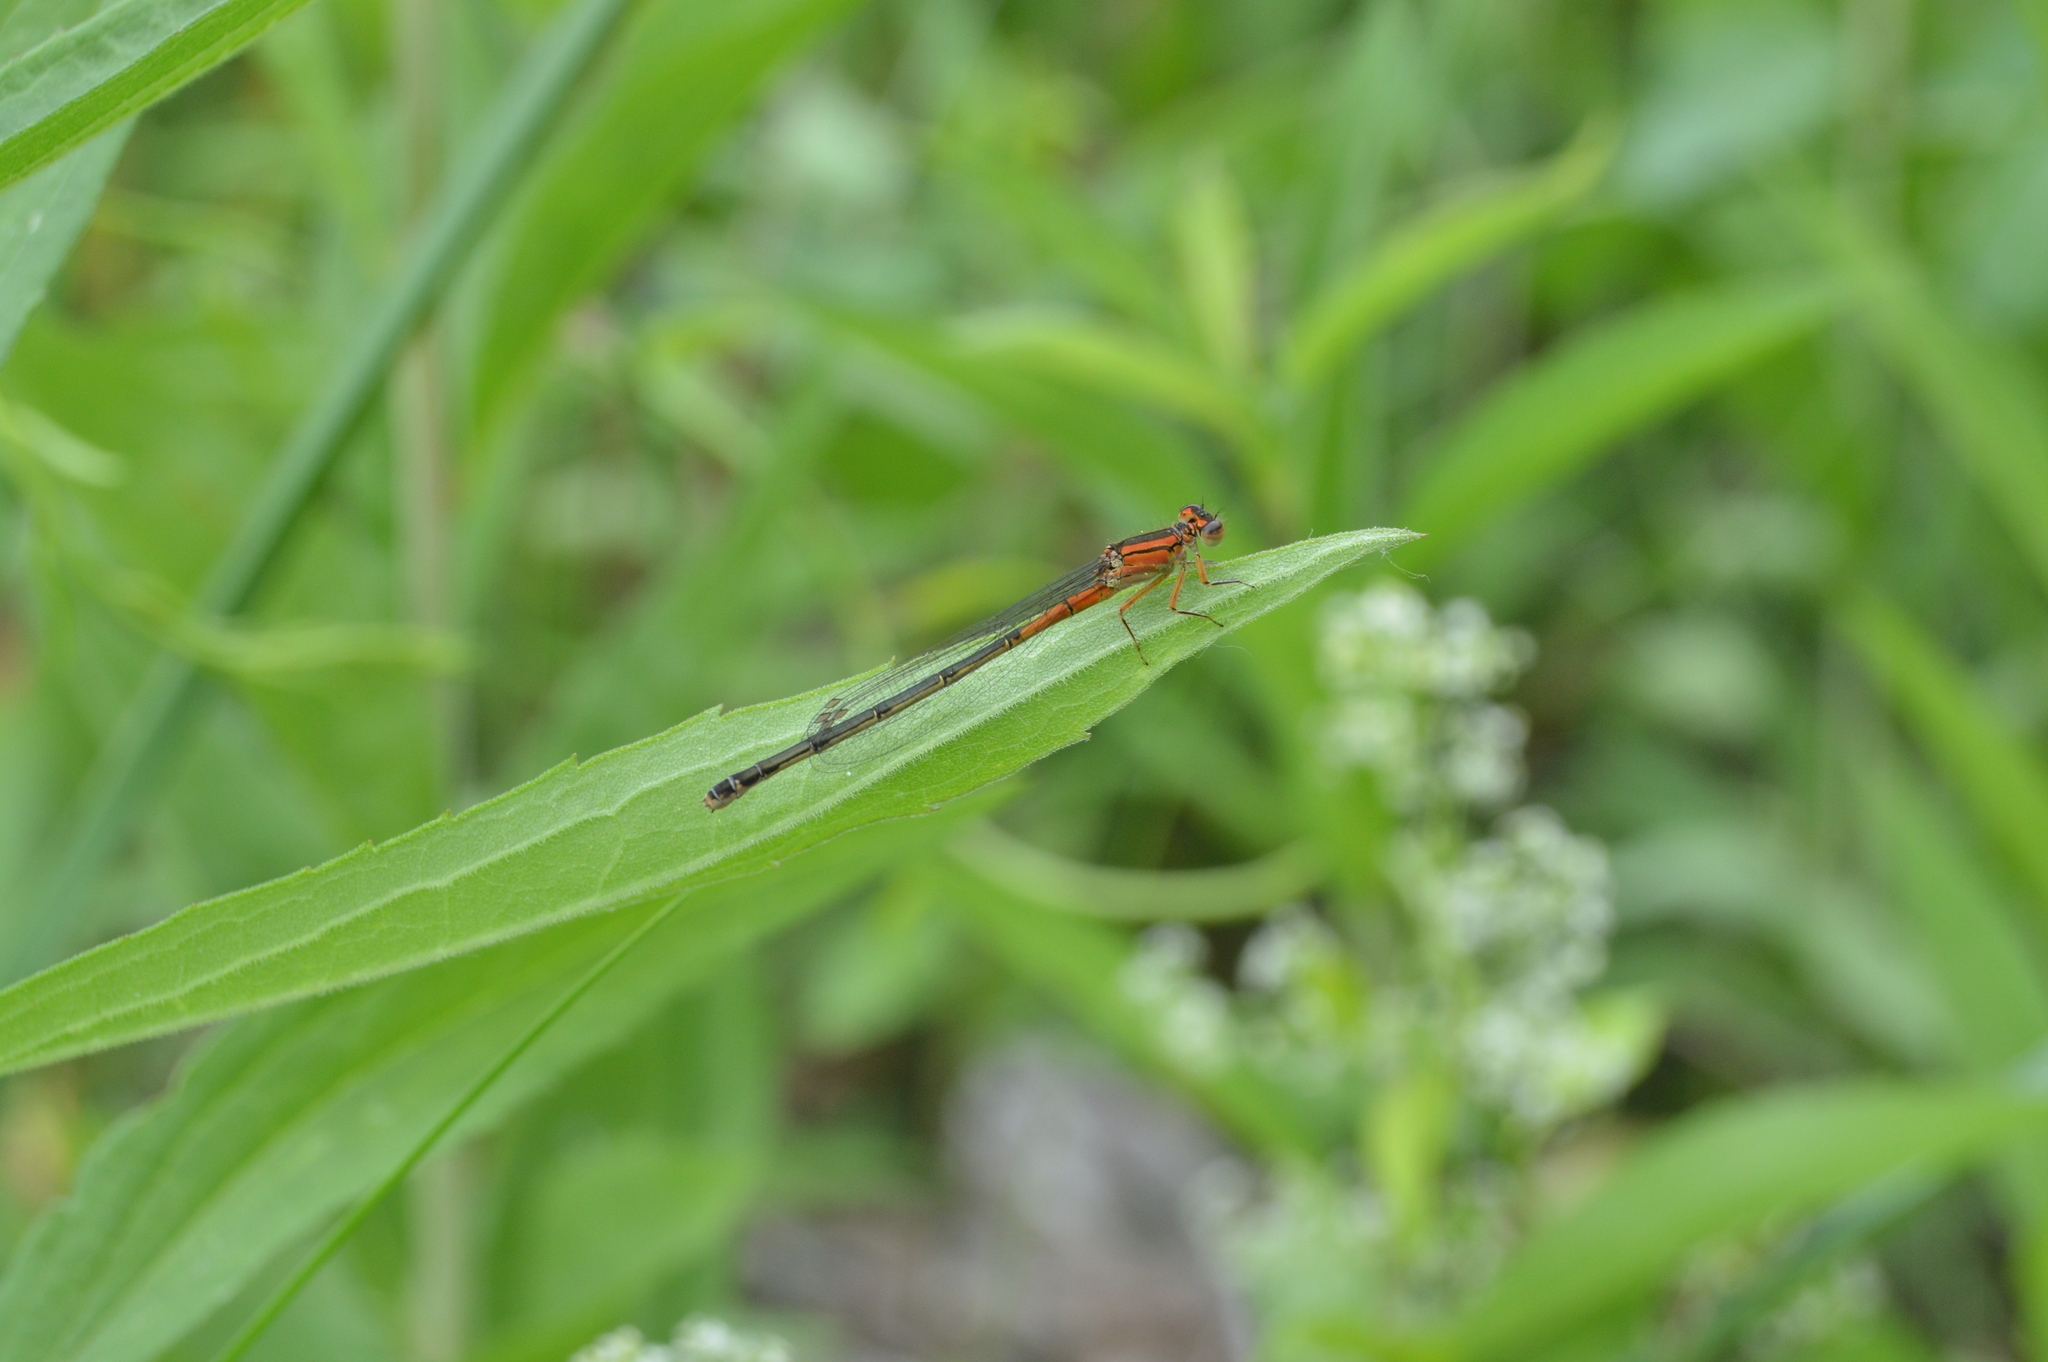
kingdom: Animalia
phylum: Arthropoda
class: Insecta
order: Odonata
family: Coenagrionidae
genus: Ischnura
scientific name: Ischnura verticalis
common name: Eastern forktail
